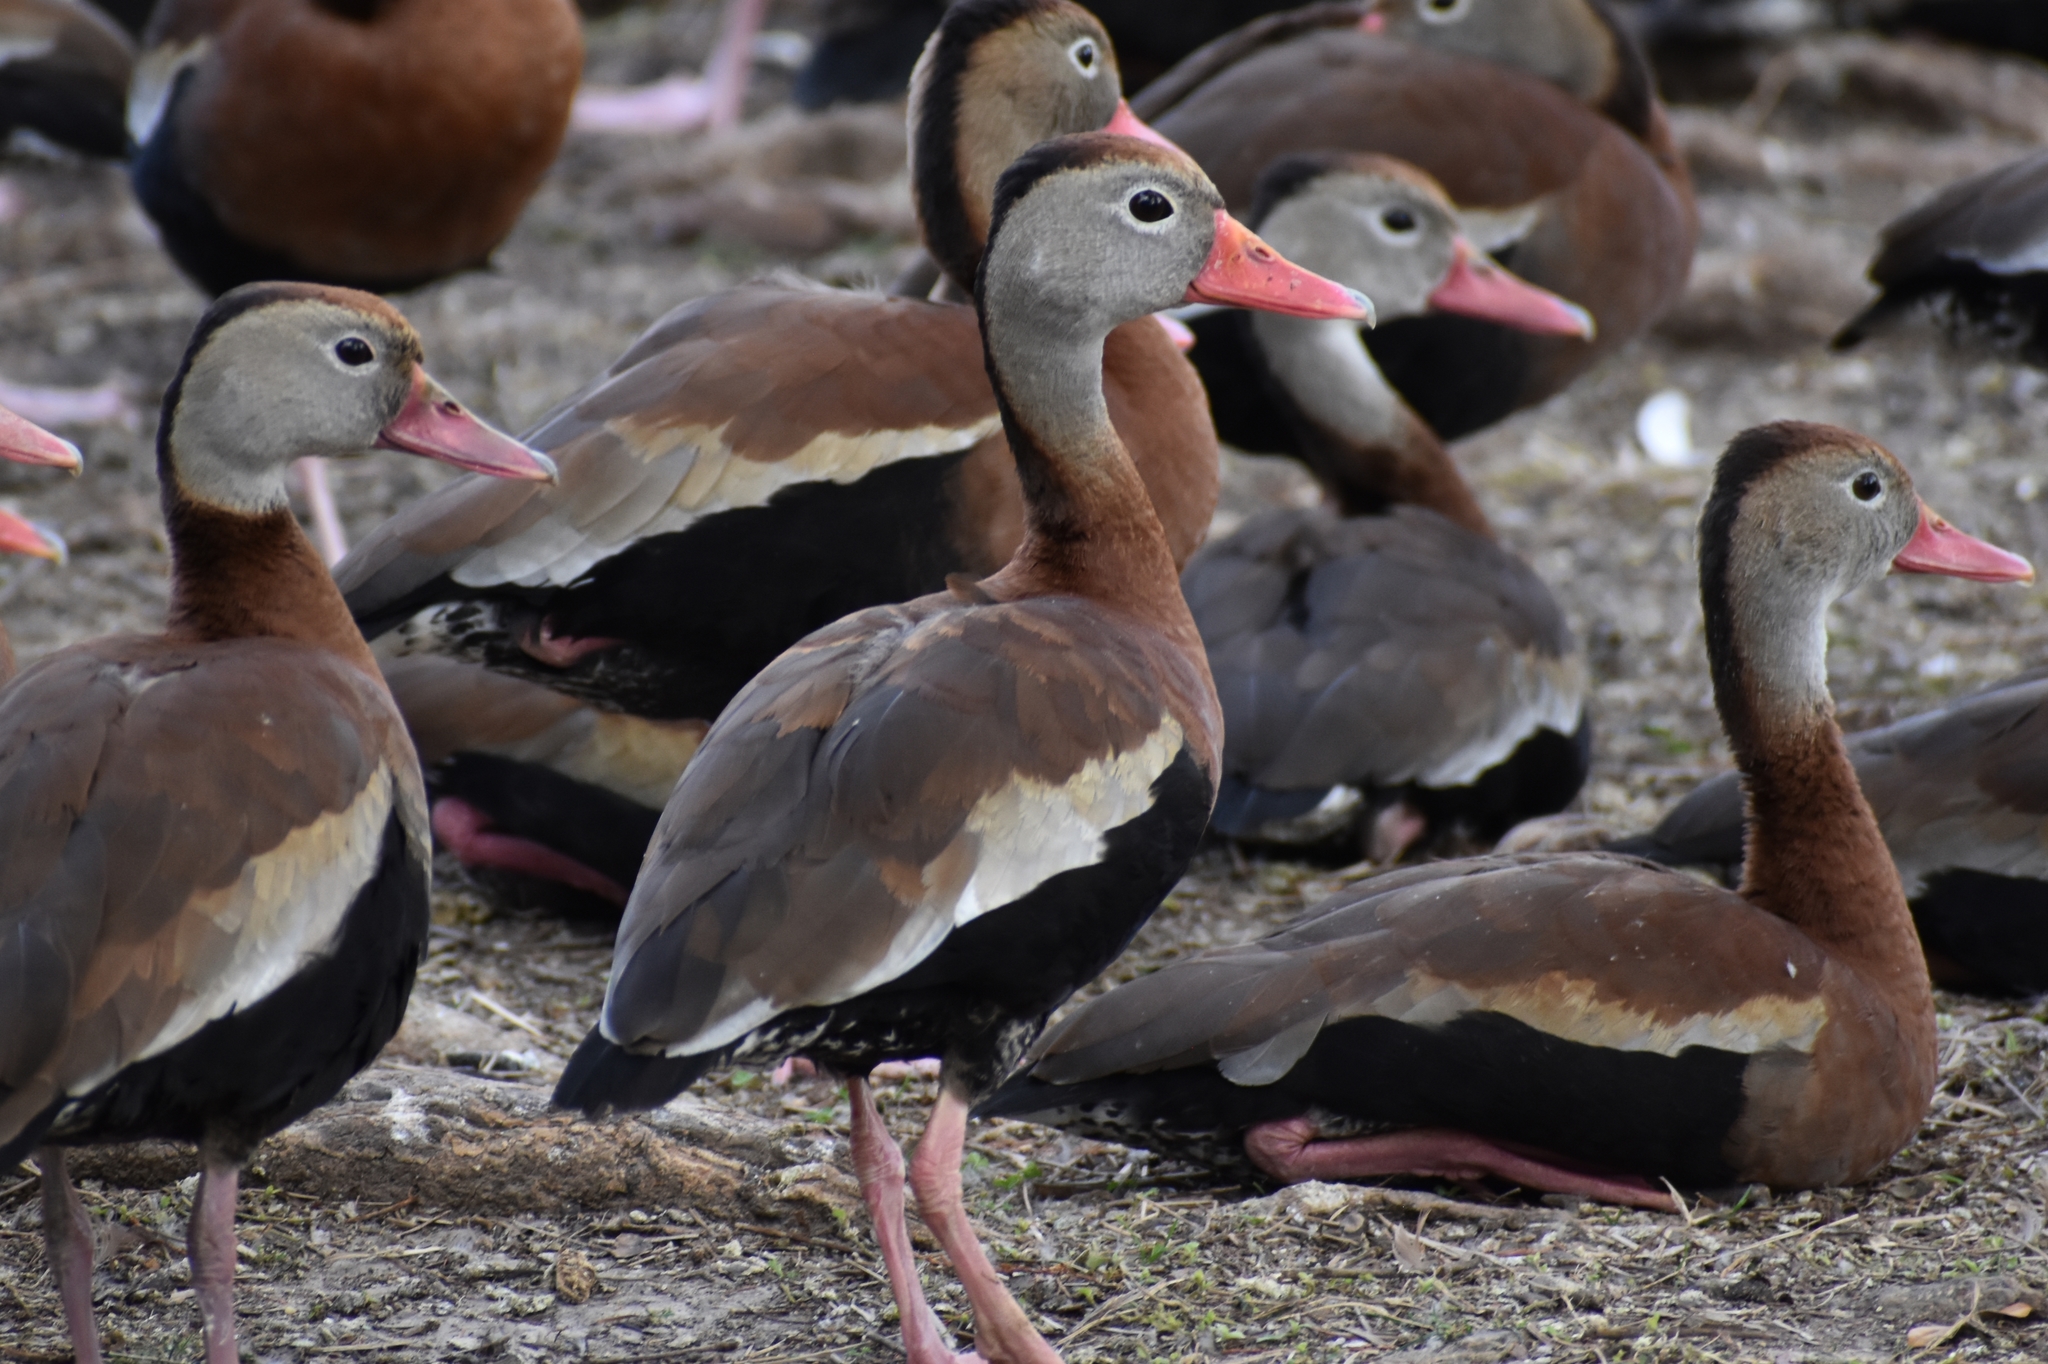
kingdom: Animalia
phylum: Chordata
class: Aves
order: Anseriformes
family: Anatidae
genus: Dendrocygna
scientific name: Dendrocygna autumnalis
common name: Black-bellied whistling duck
